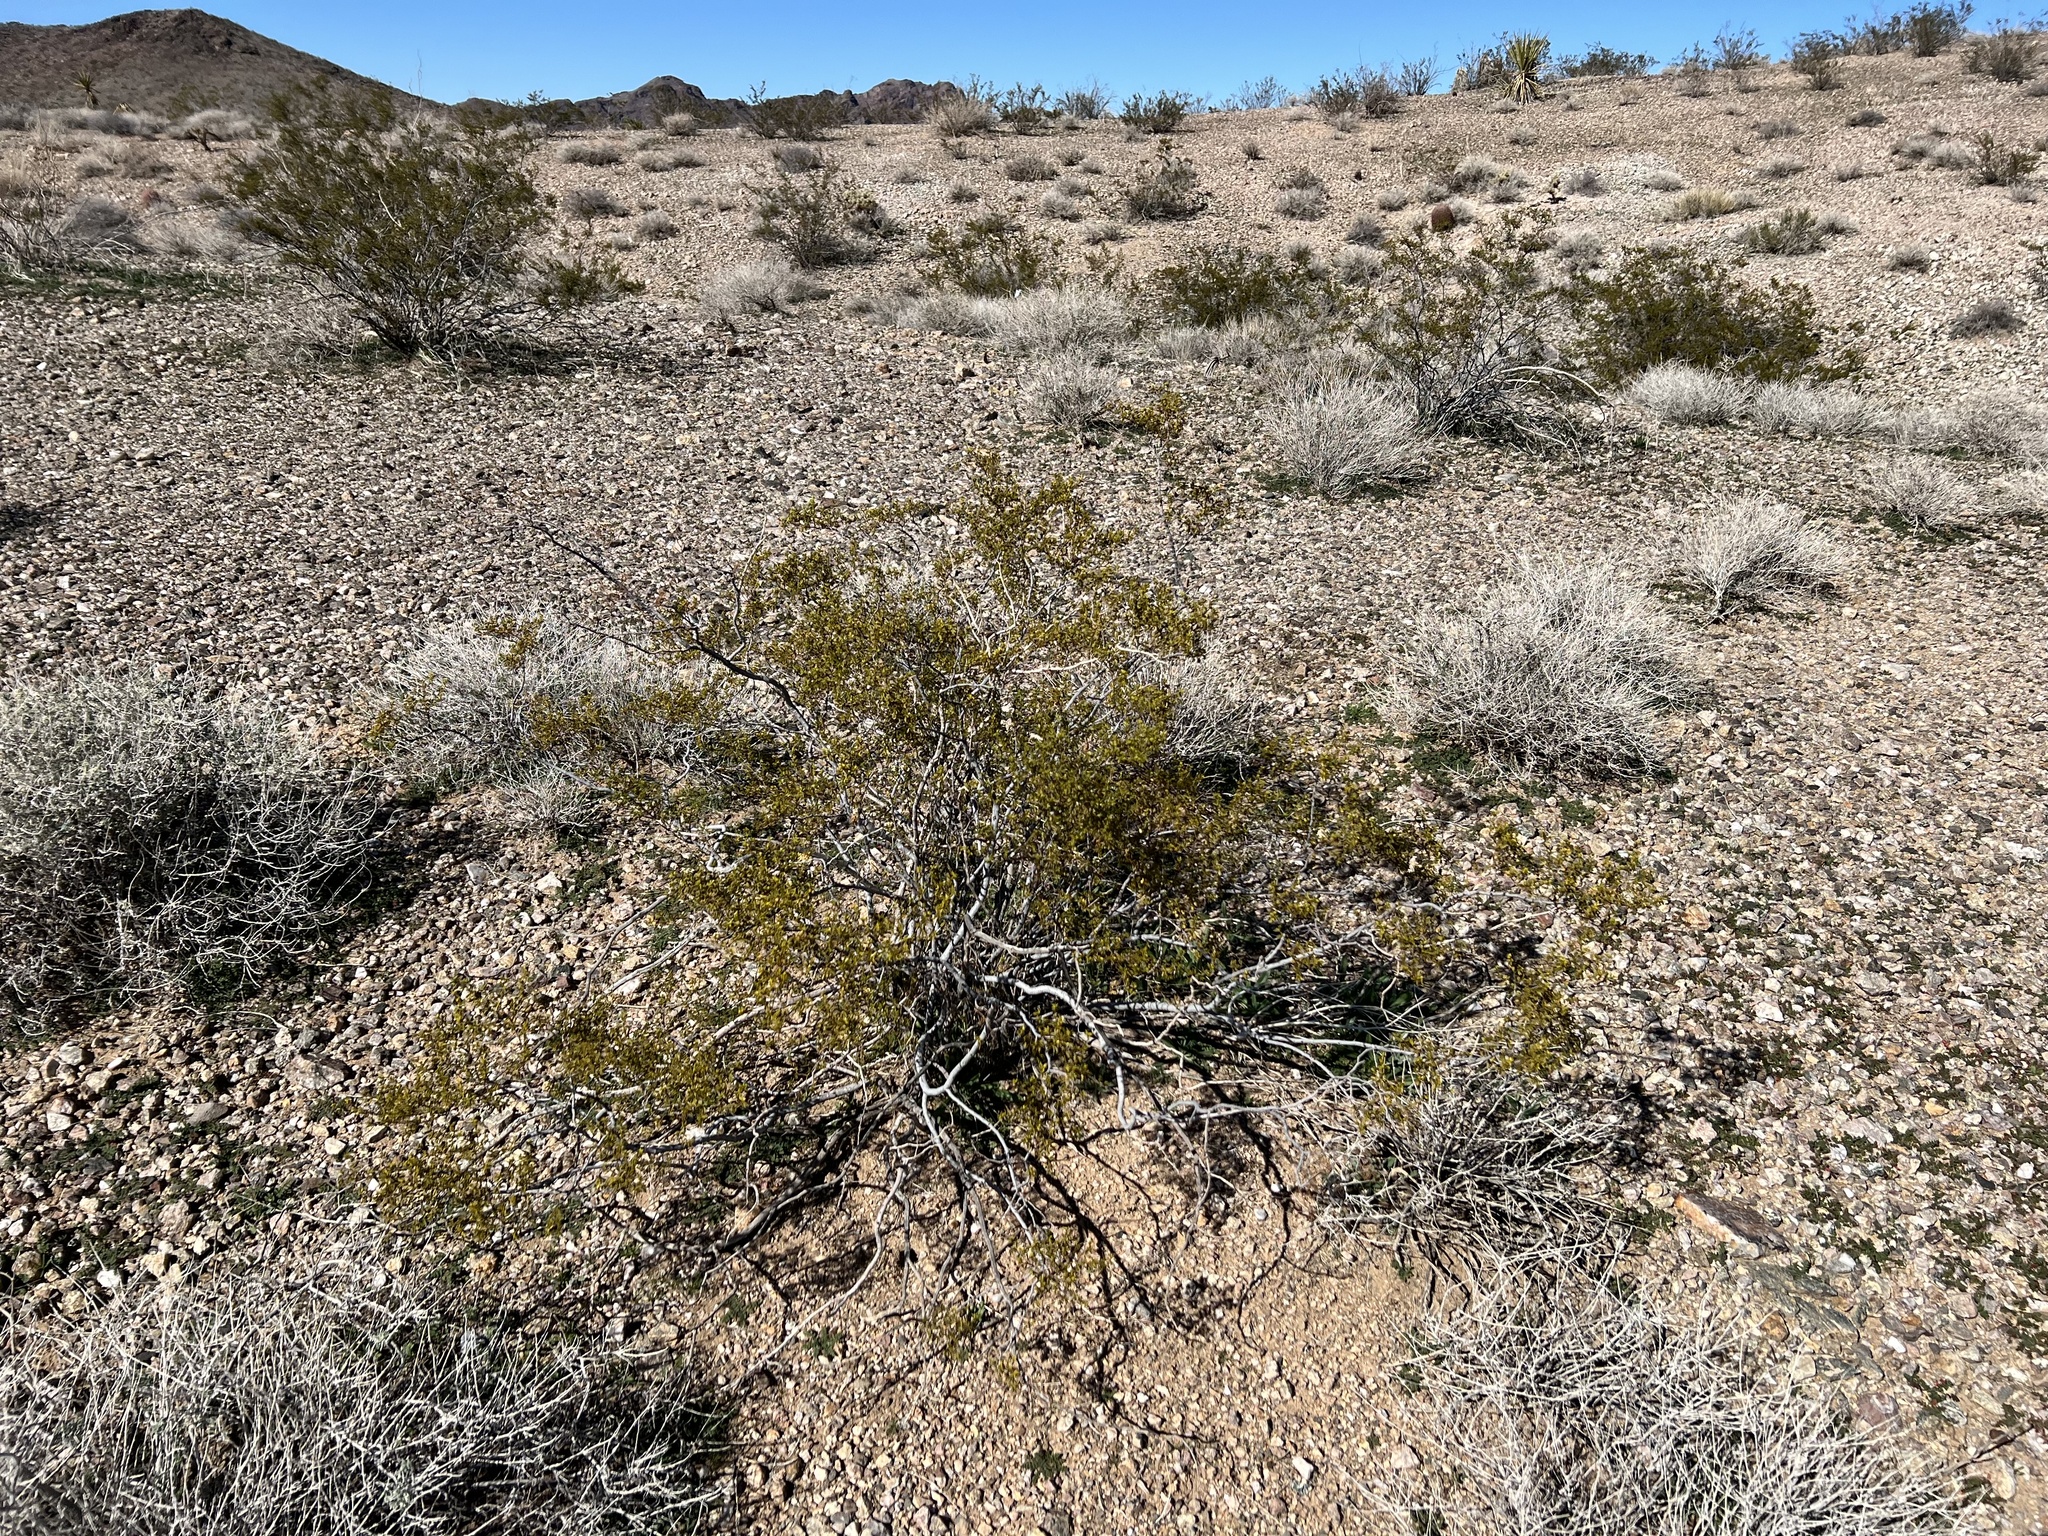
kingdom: Plantae
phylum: Tracheophyta
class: Magnoliopsida
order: Zygophyllales
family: Zygophyllaceae
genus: Larrea
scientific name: Larrea tridentata
